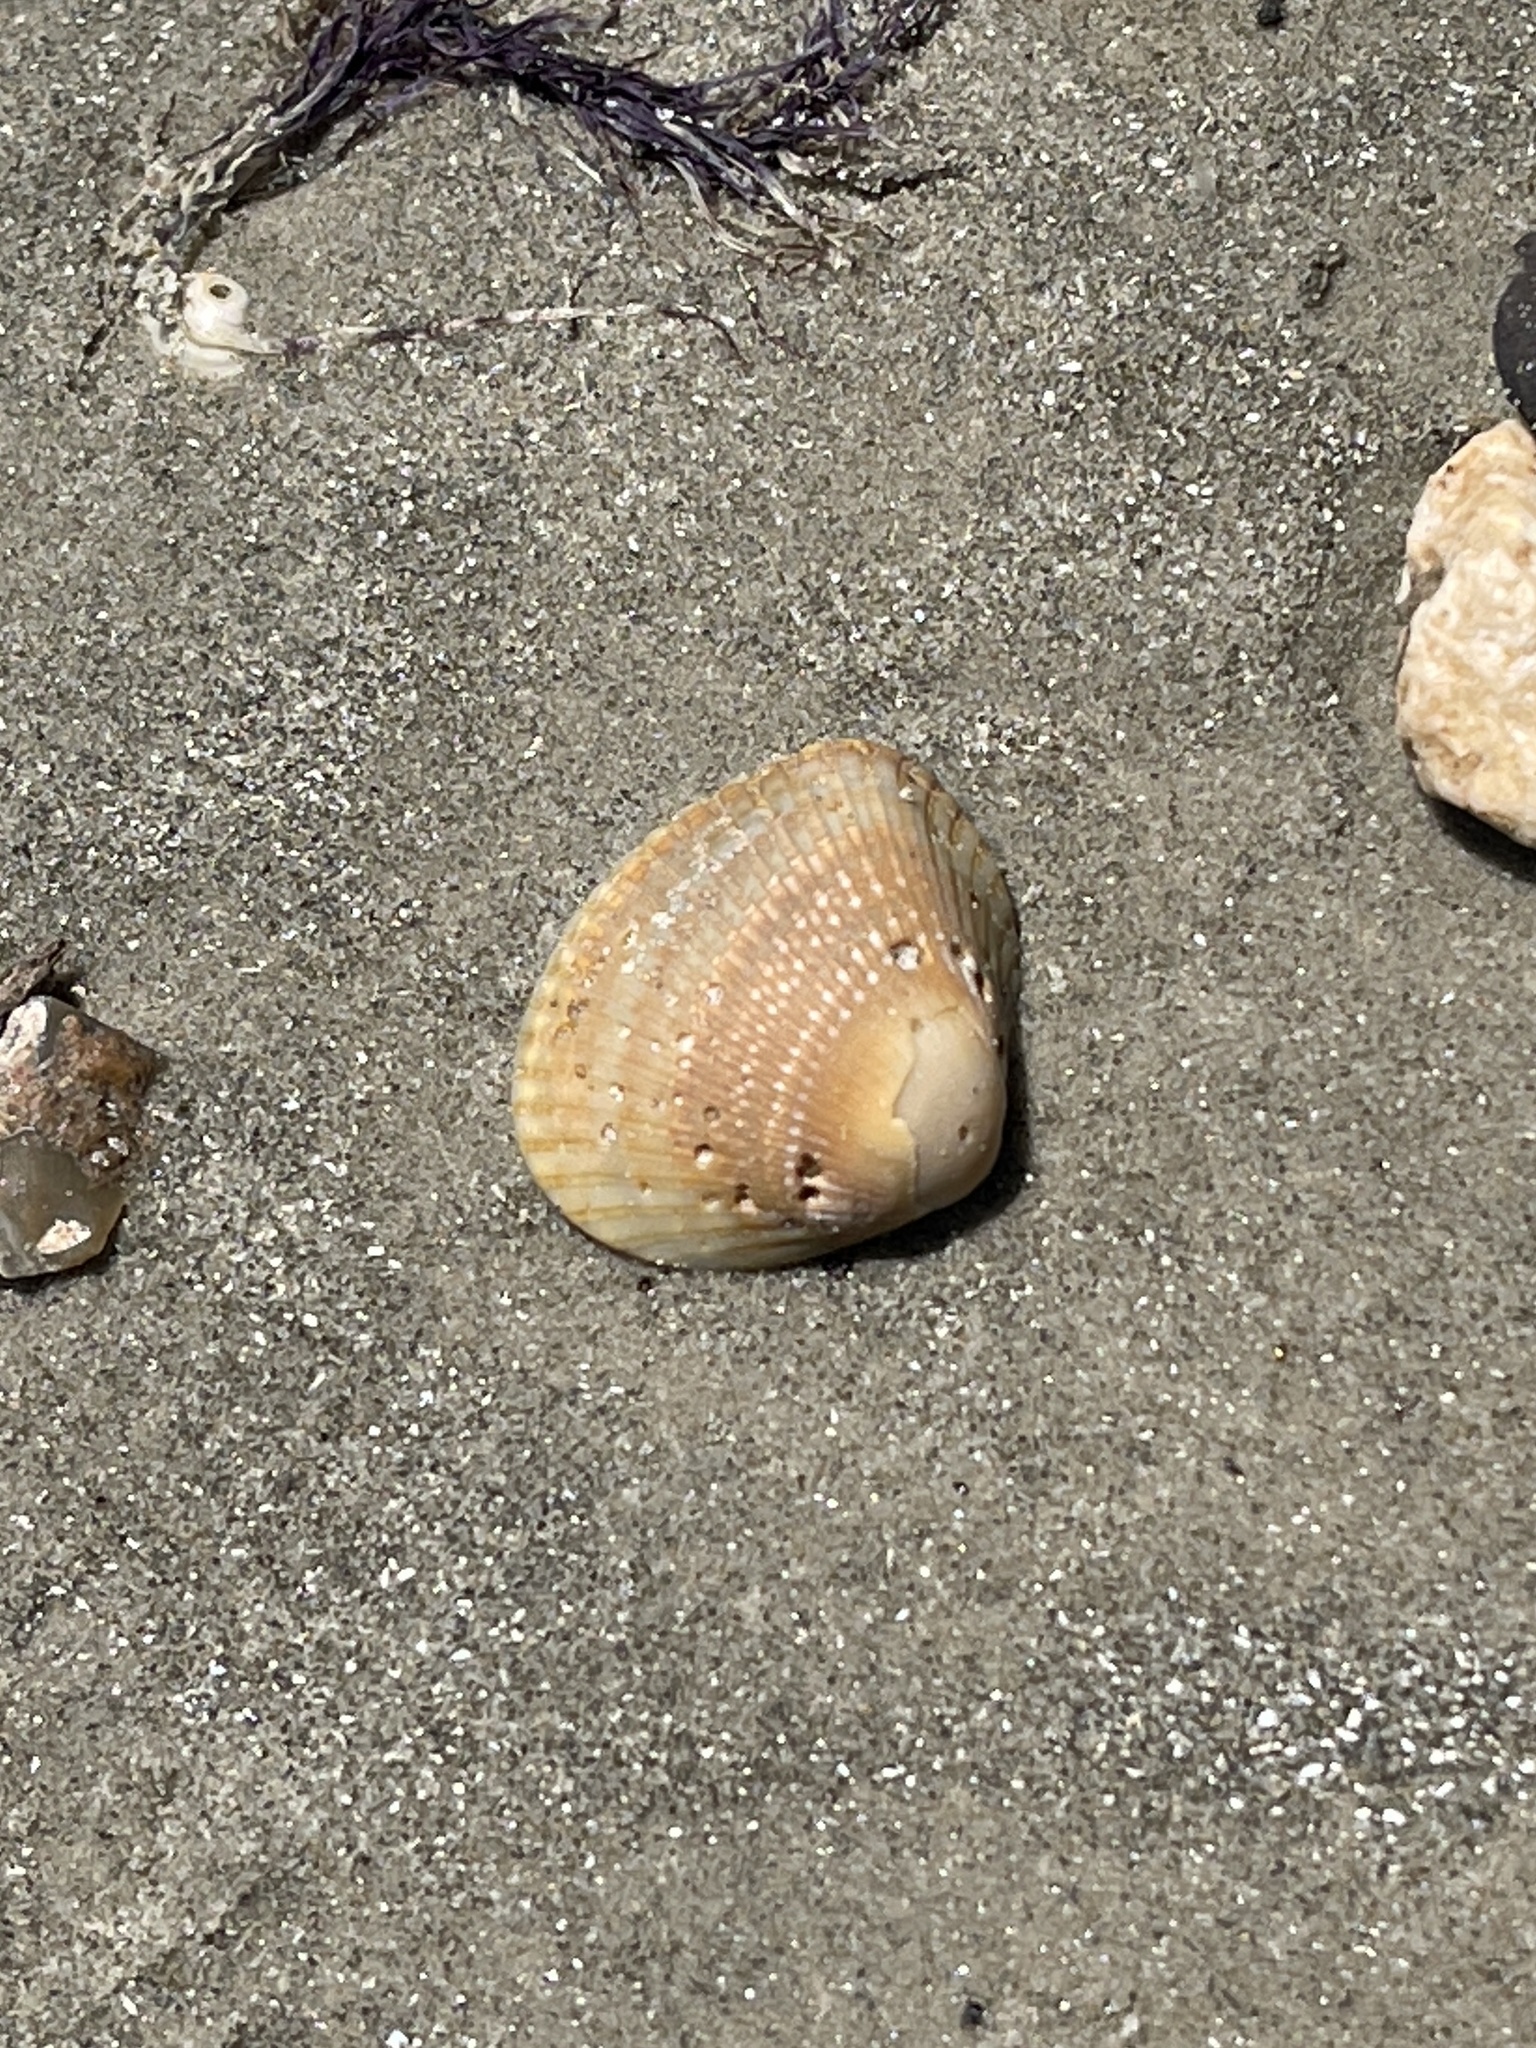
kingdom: Animalia
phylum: Mollusca
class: Bivalvia
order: Arcida
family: Noetiidae
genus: Noetia
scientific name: Noetia ponderosa
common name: Ponderous ark
